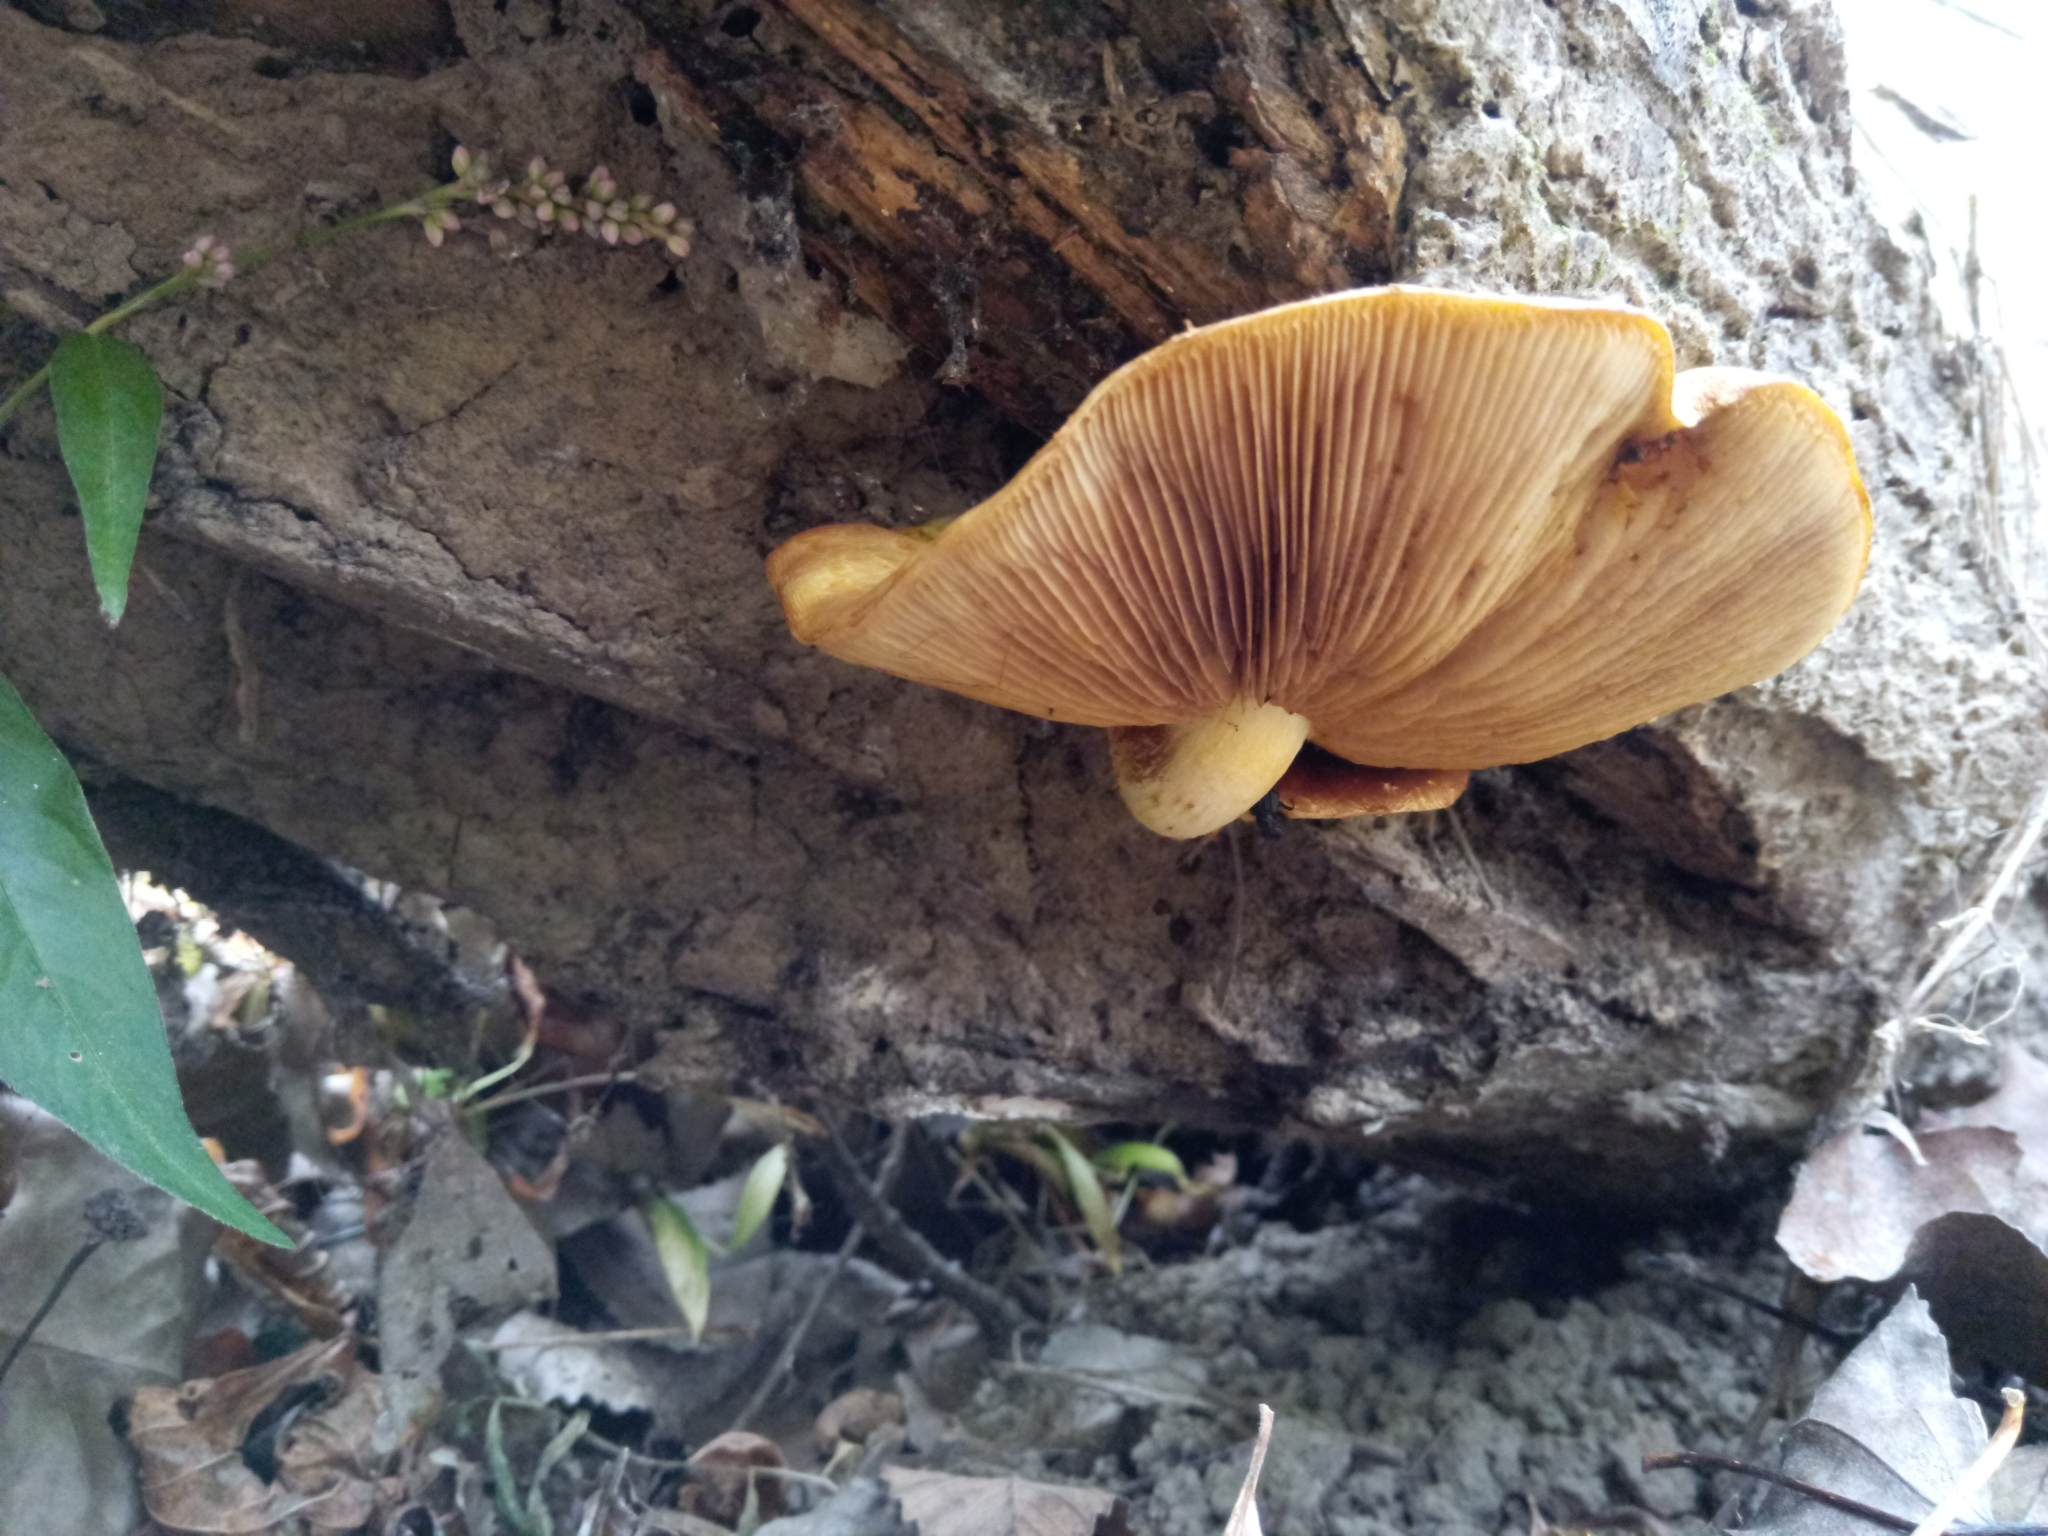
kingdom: Fungi
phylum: Basidiomycota
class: Agaricomycetes
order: Agaricales
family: Strophariaceae
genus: Pholiota
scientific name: Pholiota aurivella
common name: Golden scalycap
